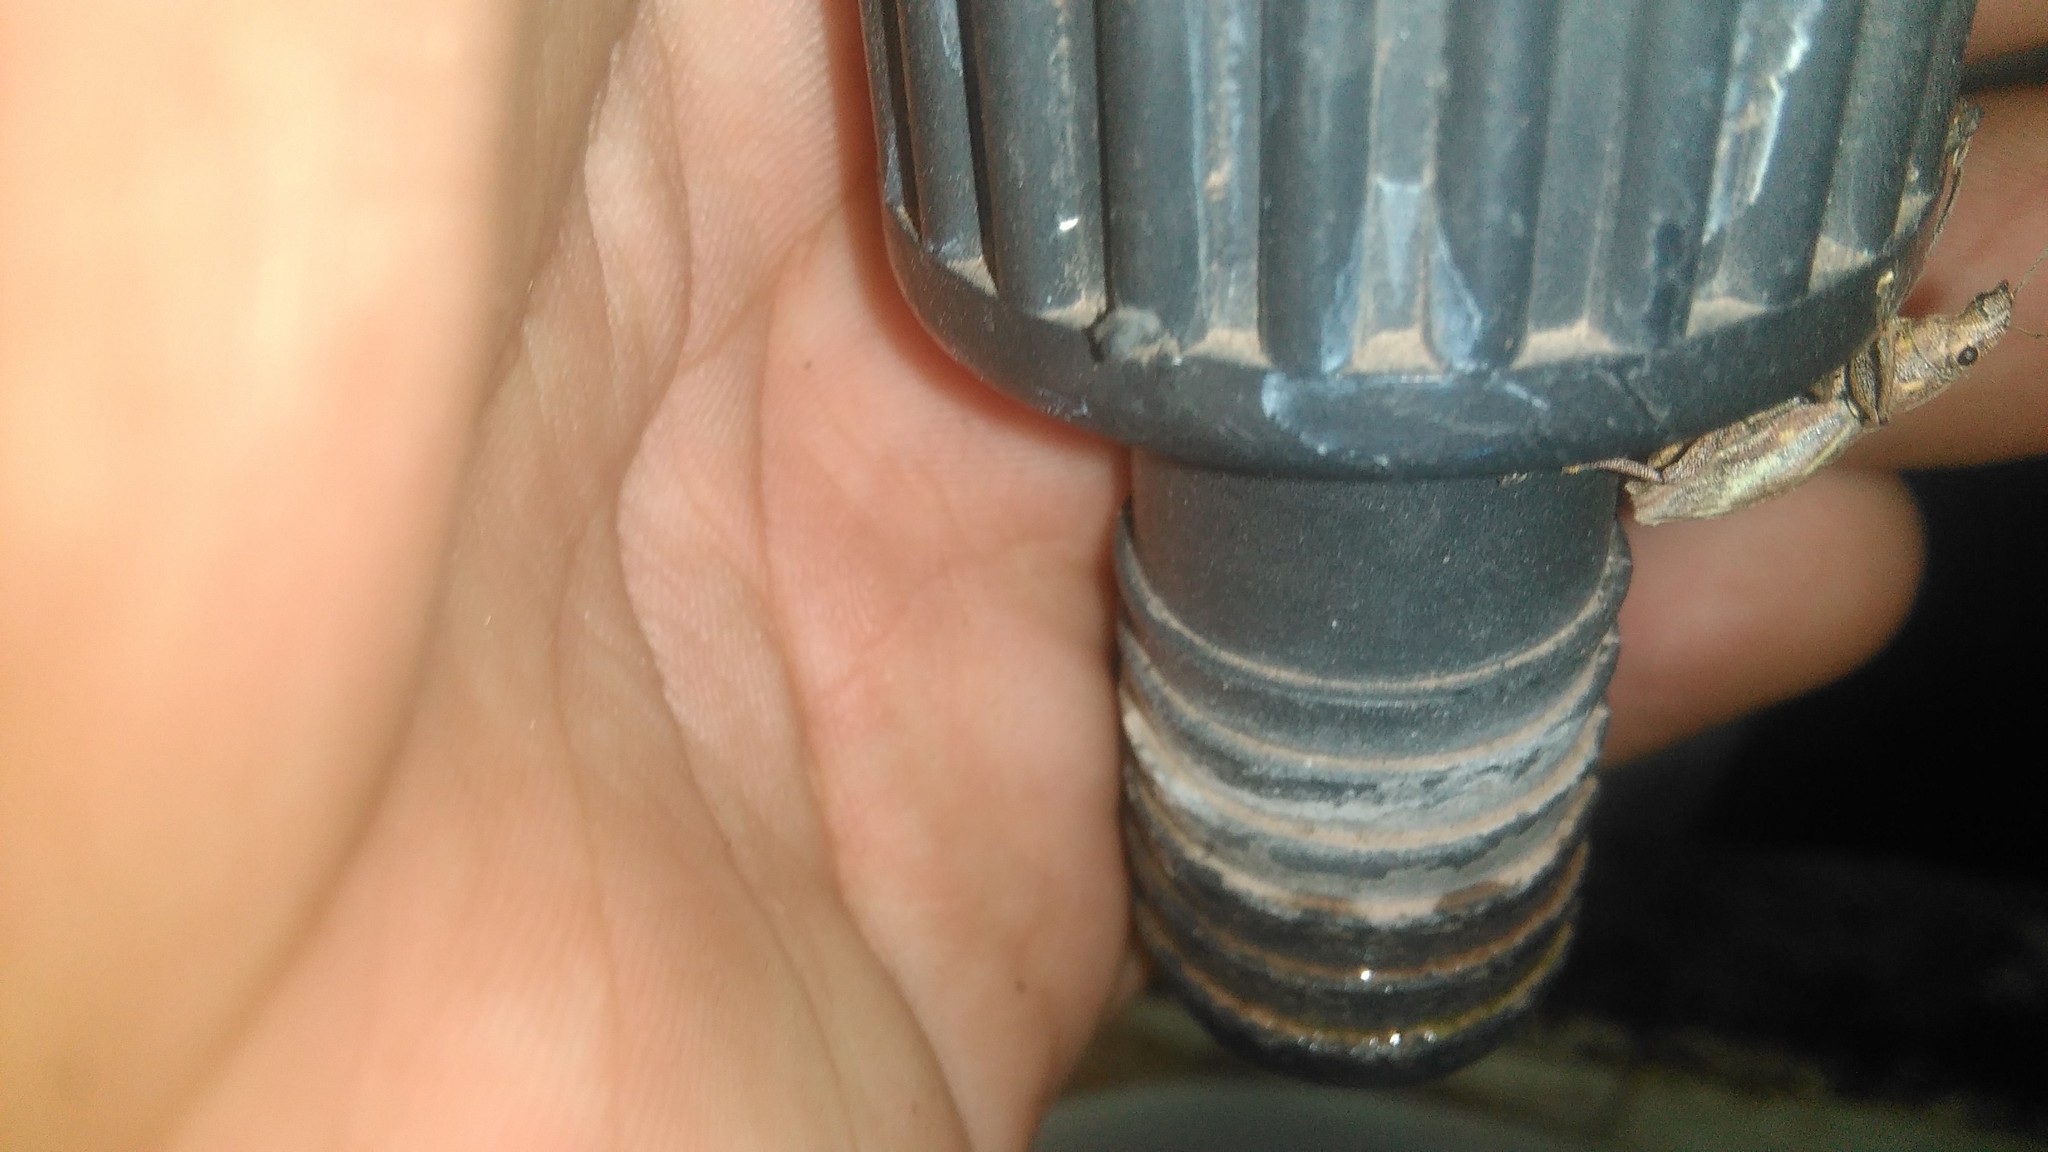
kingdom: Animalia
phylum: Arthropoda
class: Insecta
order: Coleoptera
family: Curculionidae
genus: Naupactus
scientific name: Naupactus xanthographus
